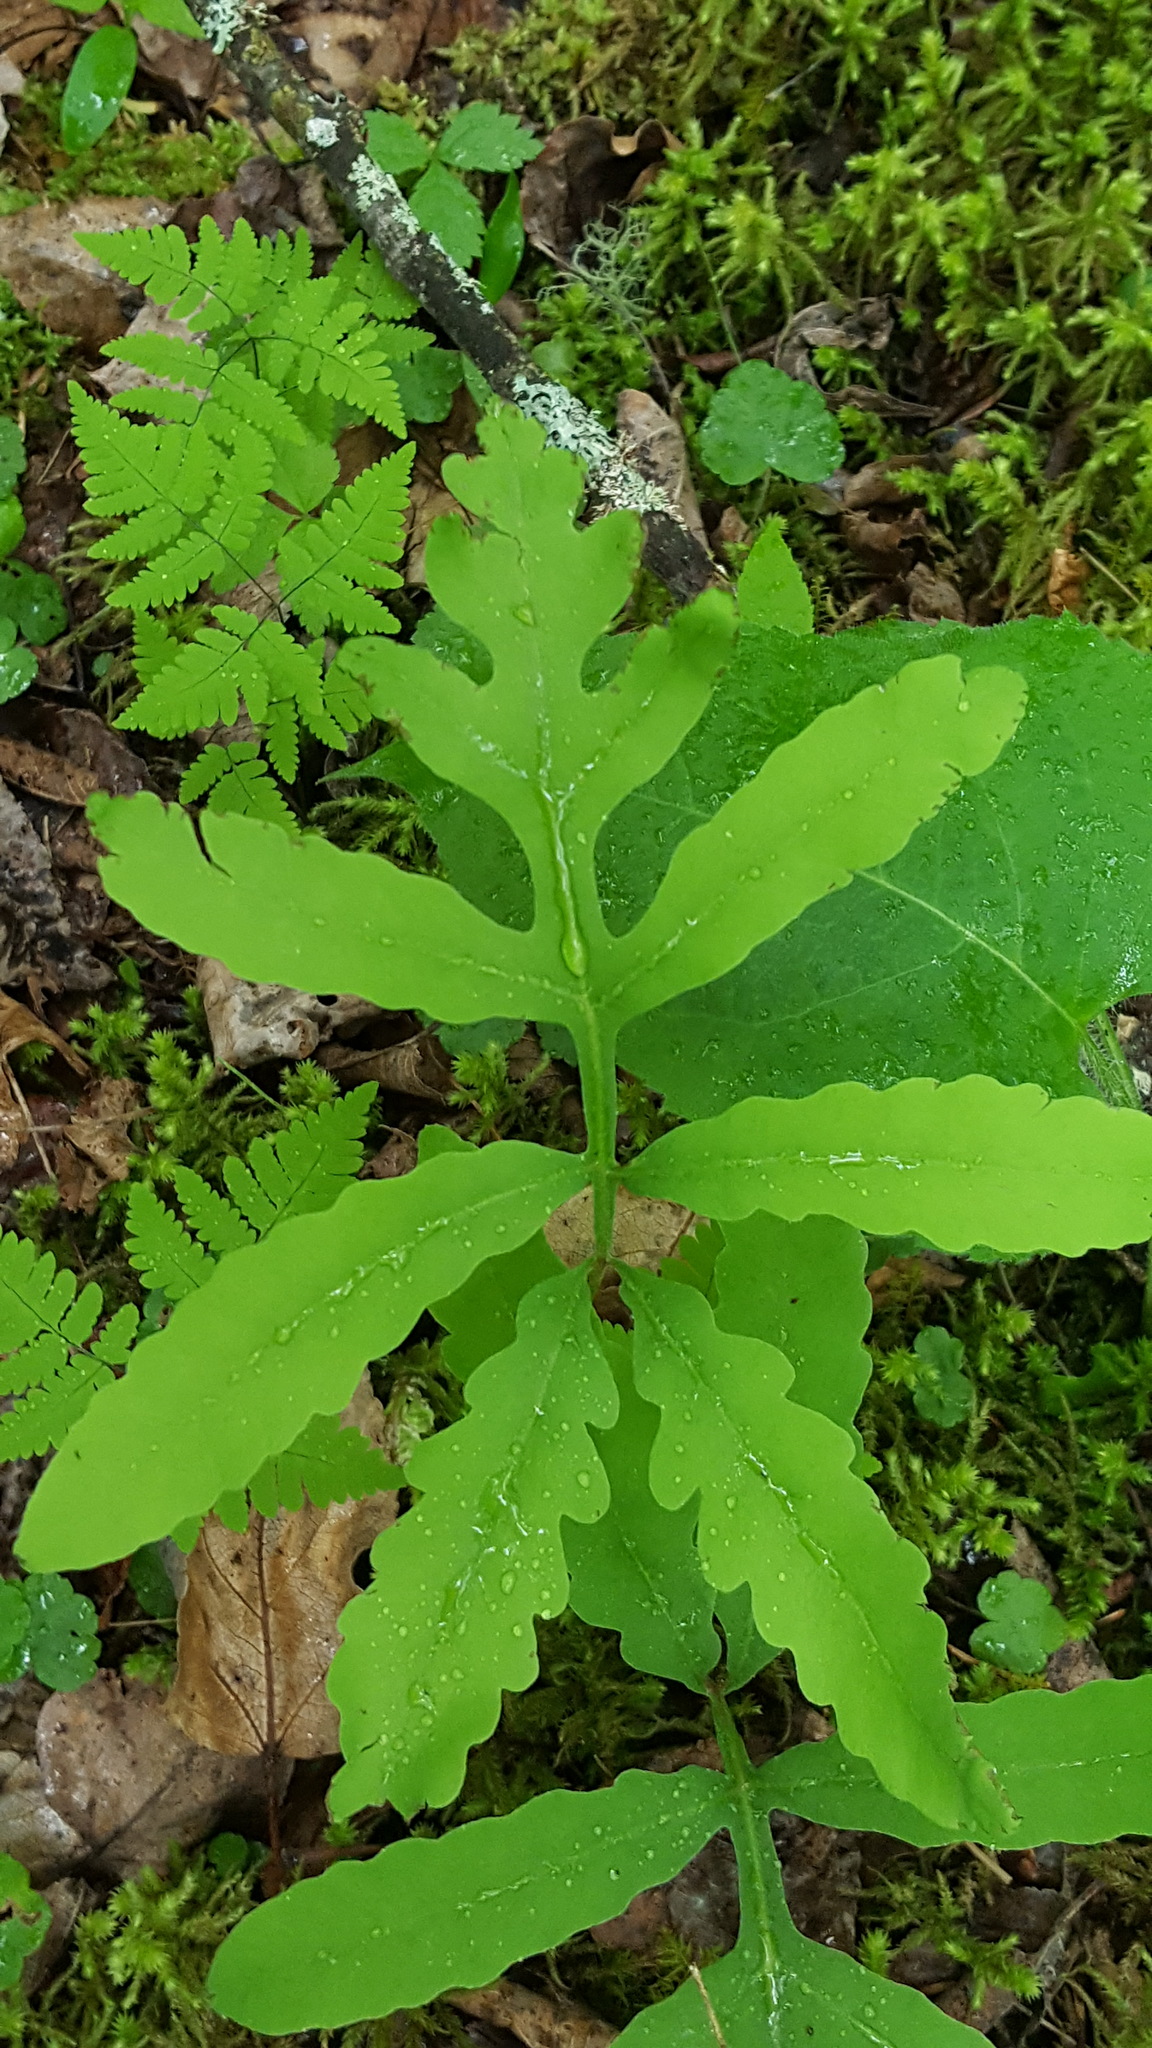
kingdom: Plantae
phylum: Tracheophyta
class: Polypodiopsida
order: Polypodiales
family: Onocleaceae
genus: Onoclea
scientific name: Onoclea sensibilis
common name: Sensitive fern
